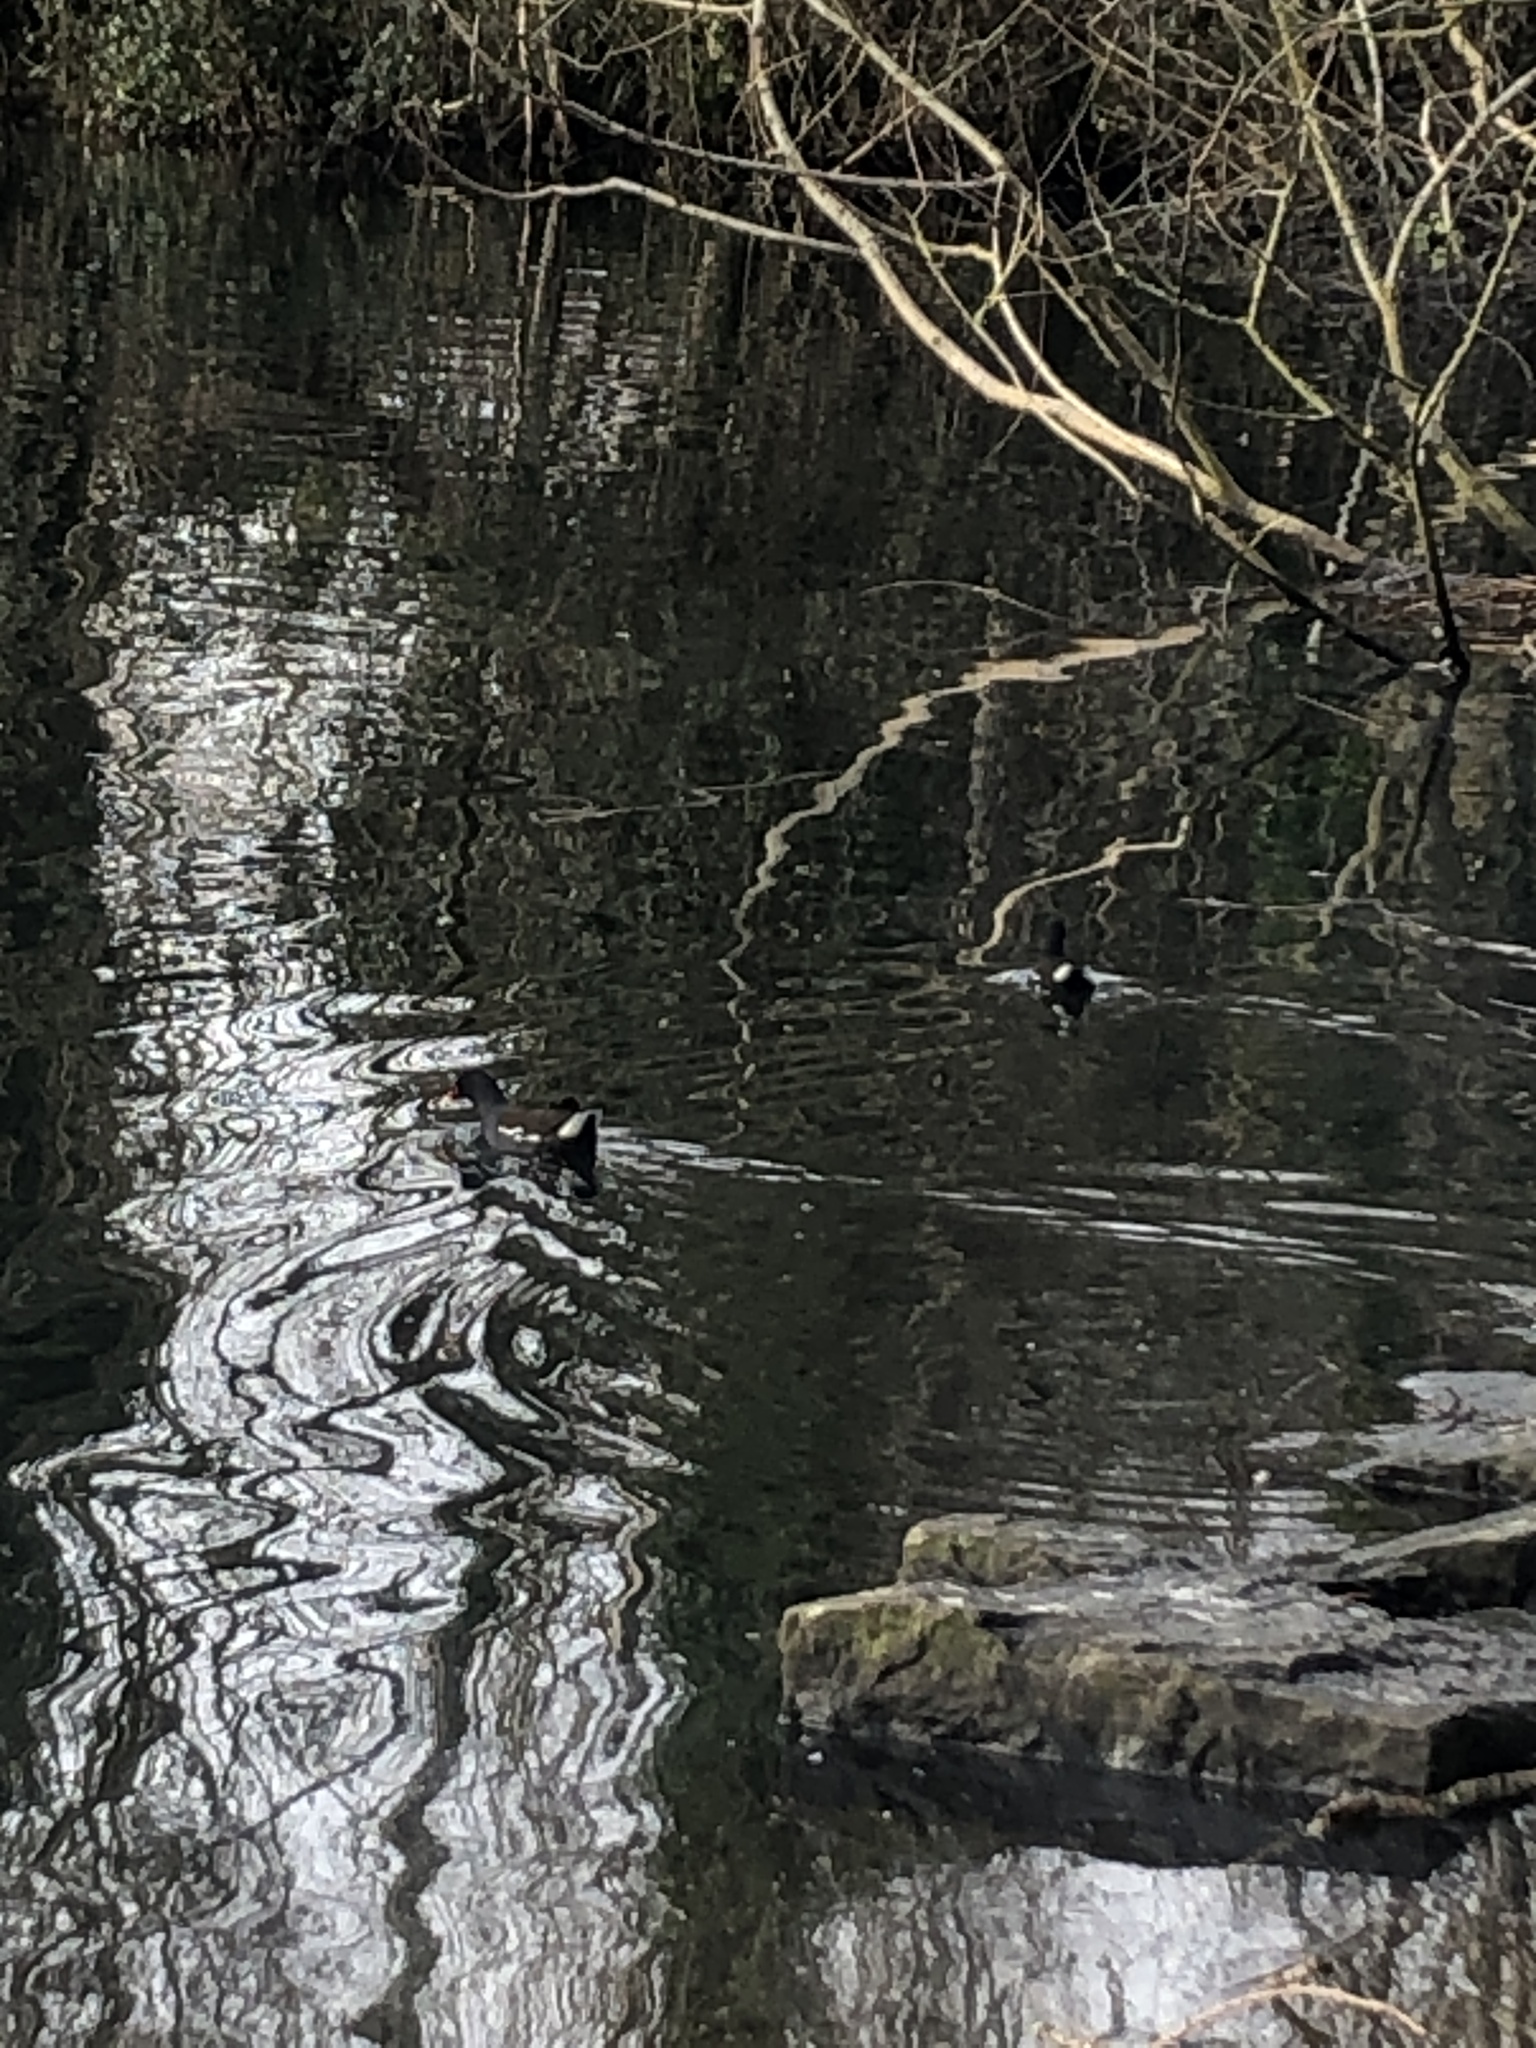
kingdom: Animalia
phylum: Chordata
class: Aves
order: Gruiformes
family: Rallidae
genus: Fulica
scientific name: Fulica atra
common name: Eurasian coot
